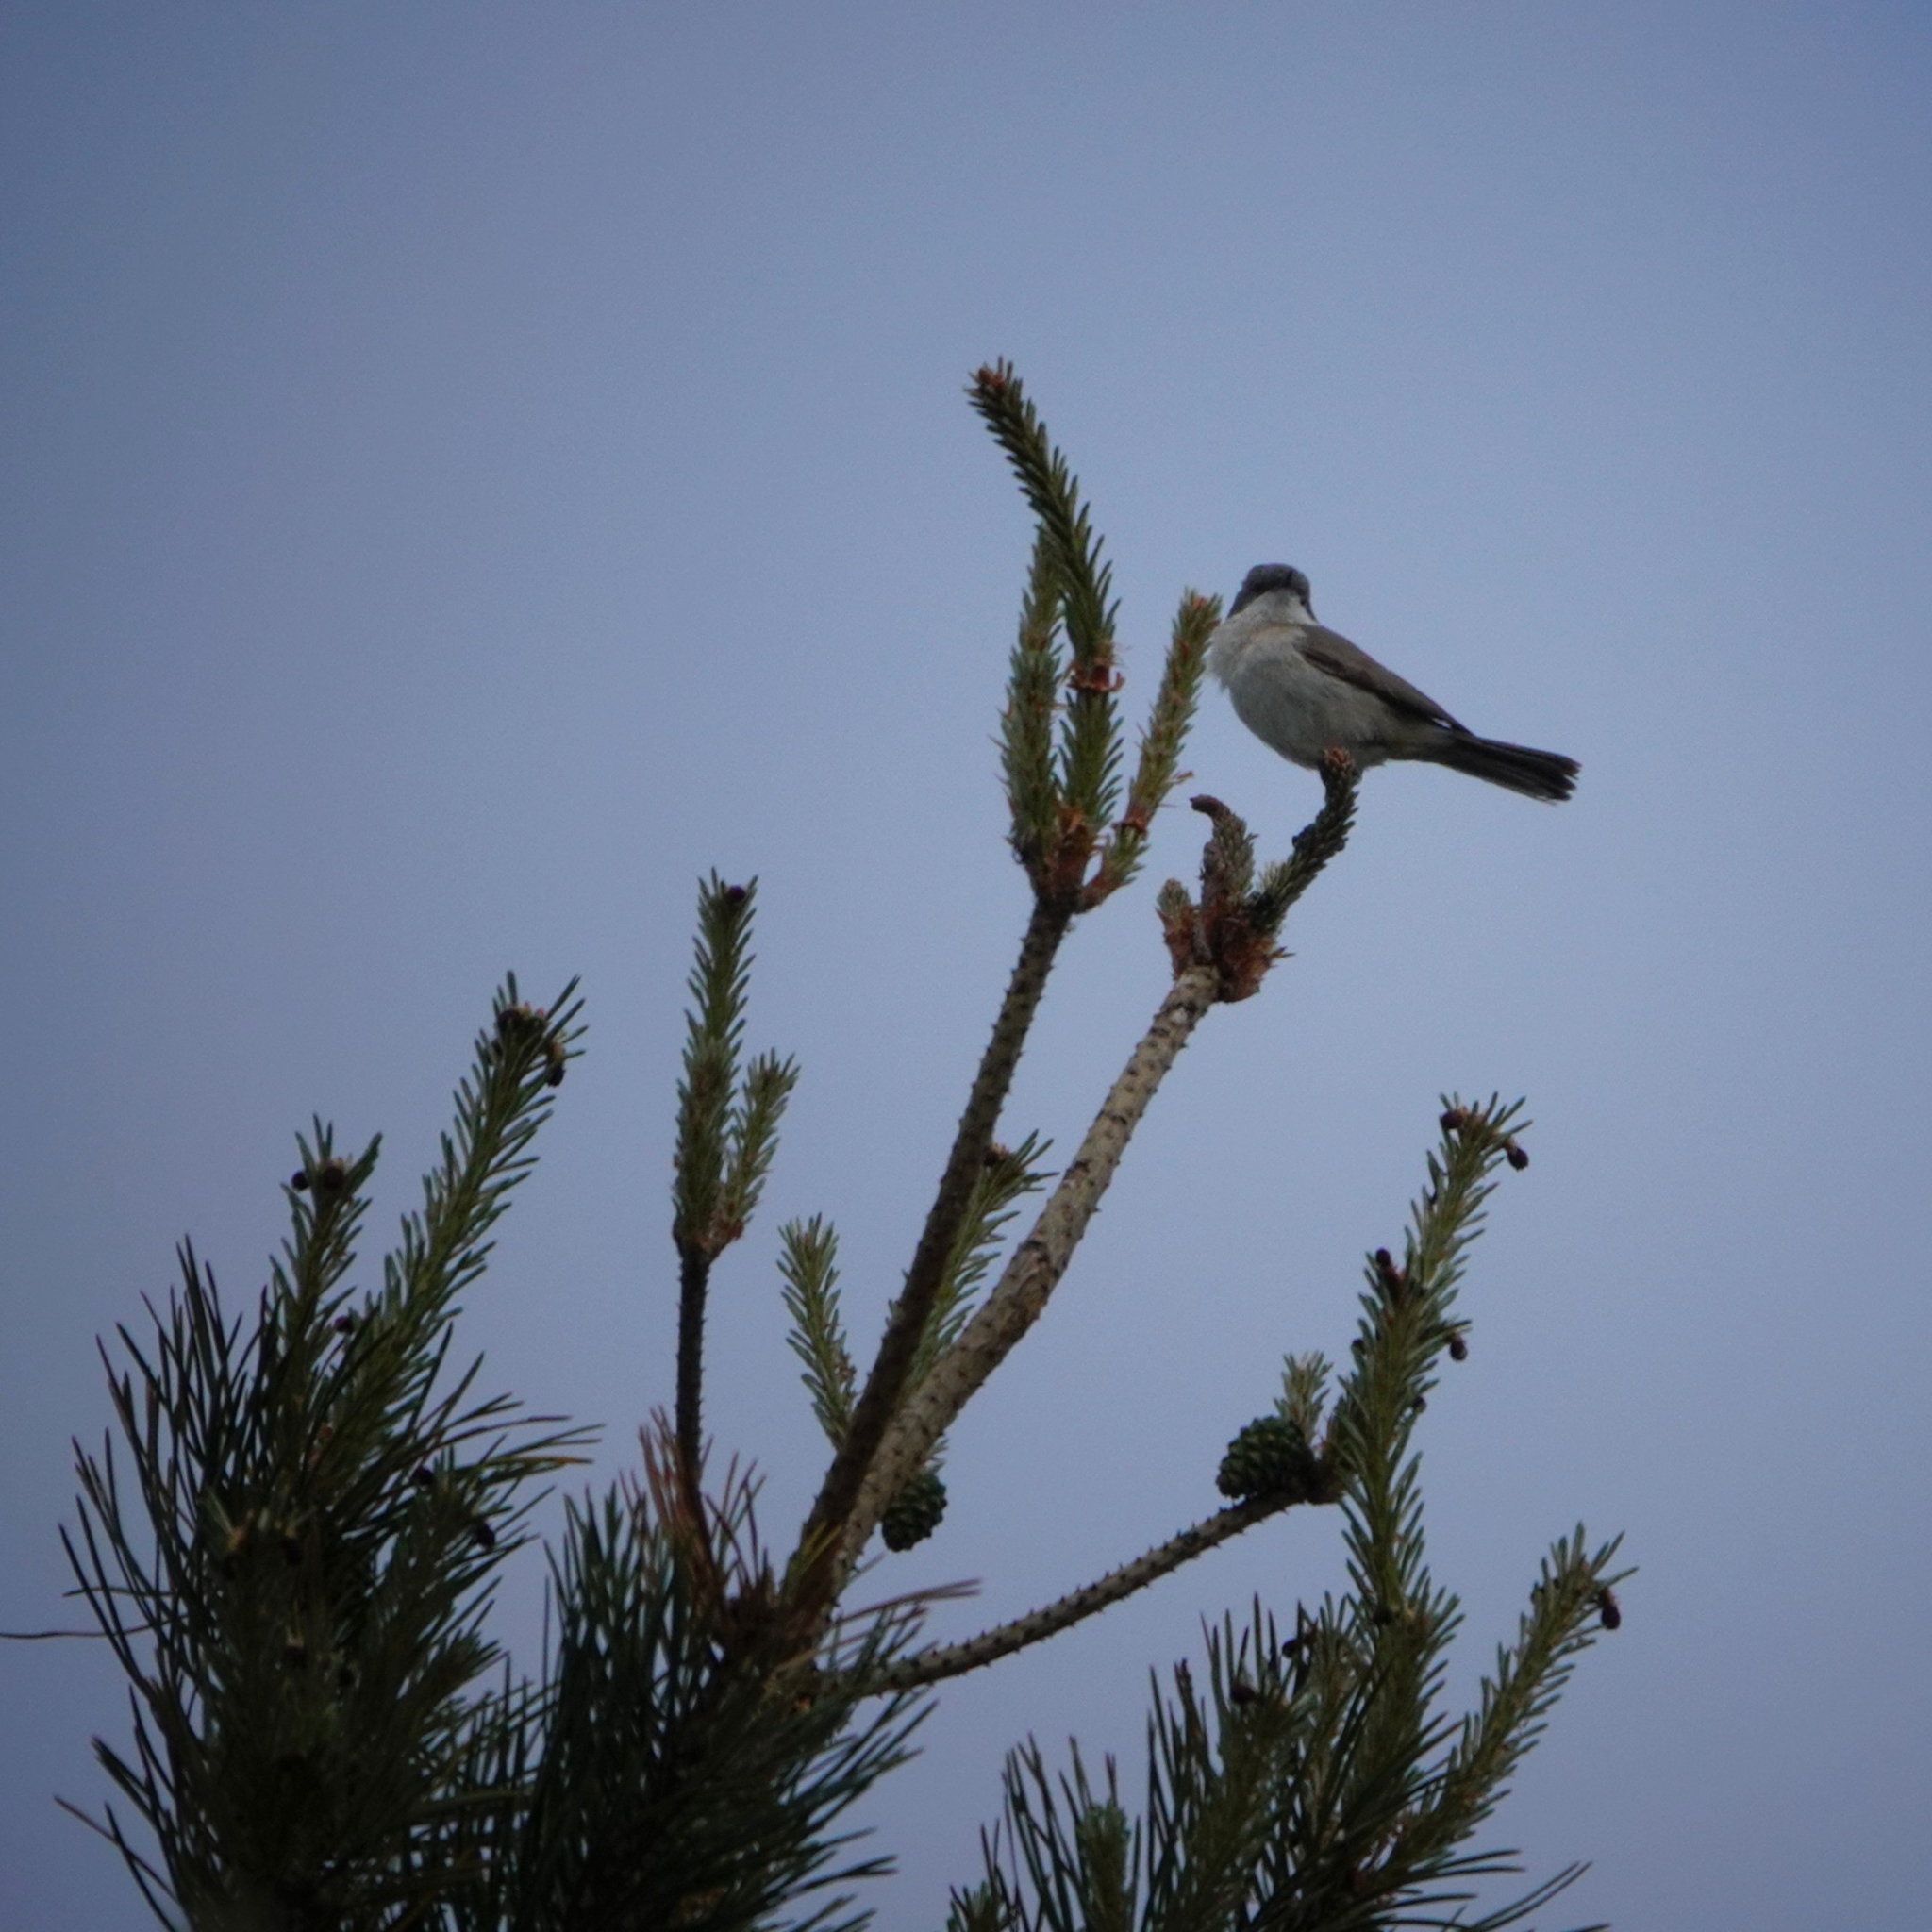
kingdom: Animalia
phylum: Chordata
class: Aves
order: Passeriformes
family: Sylviidae
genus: Sylvia
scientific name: Sylvia curruca
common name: Lesser whitethroat
